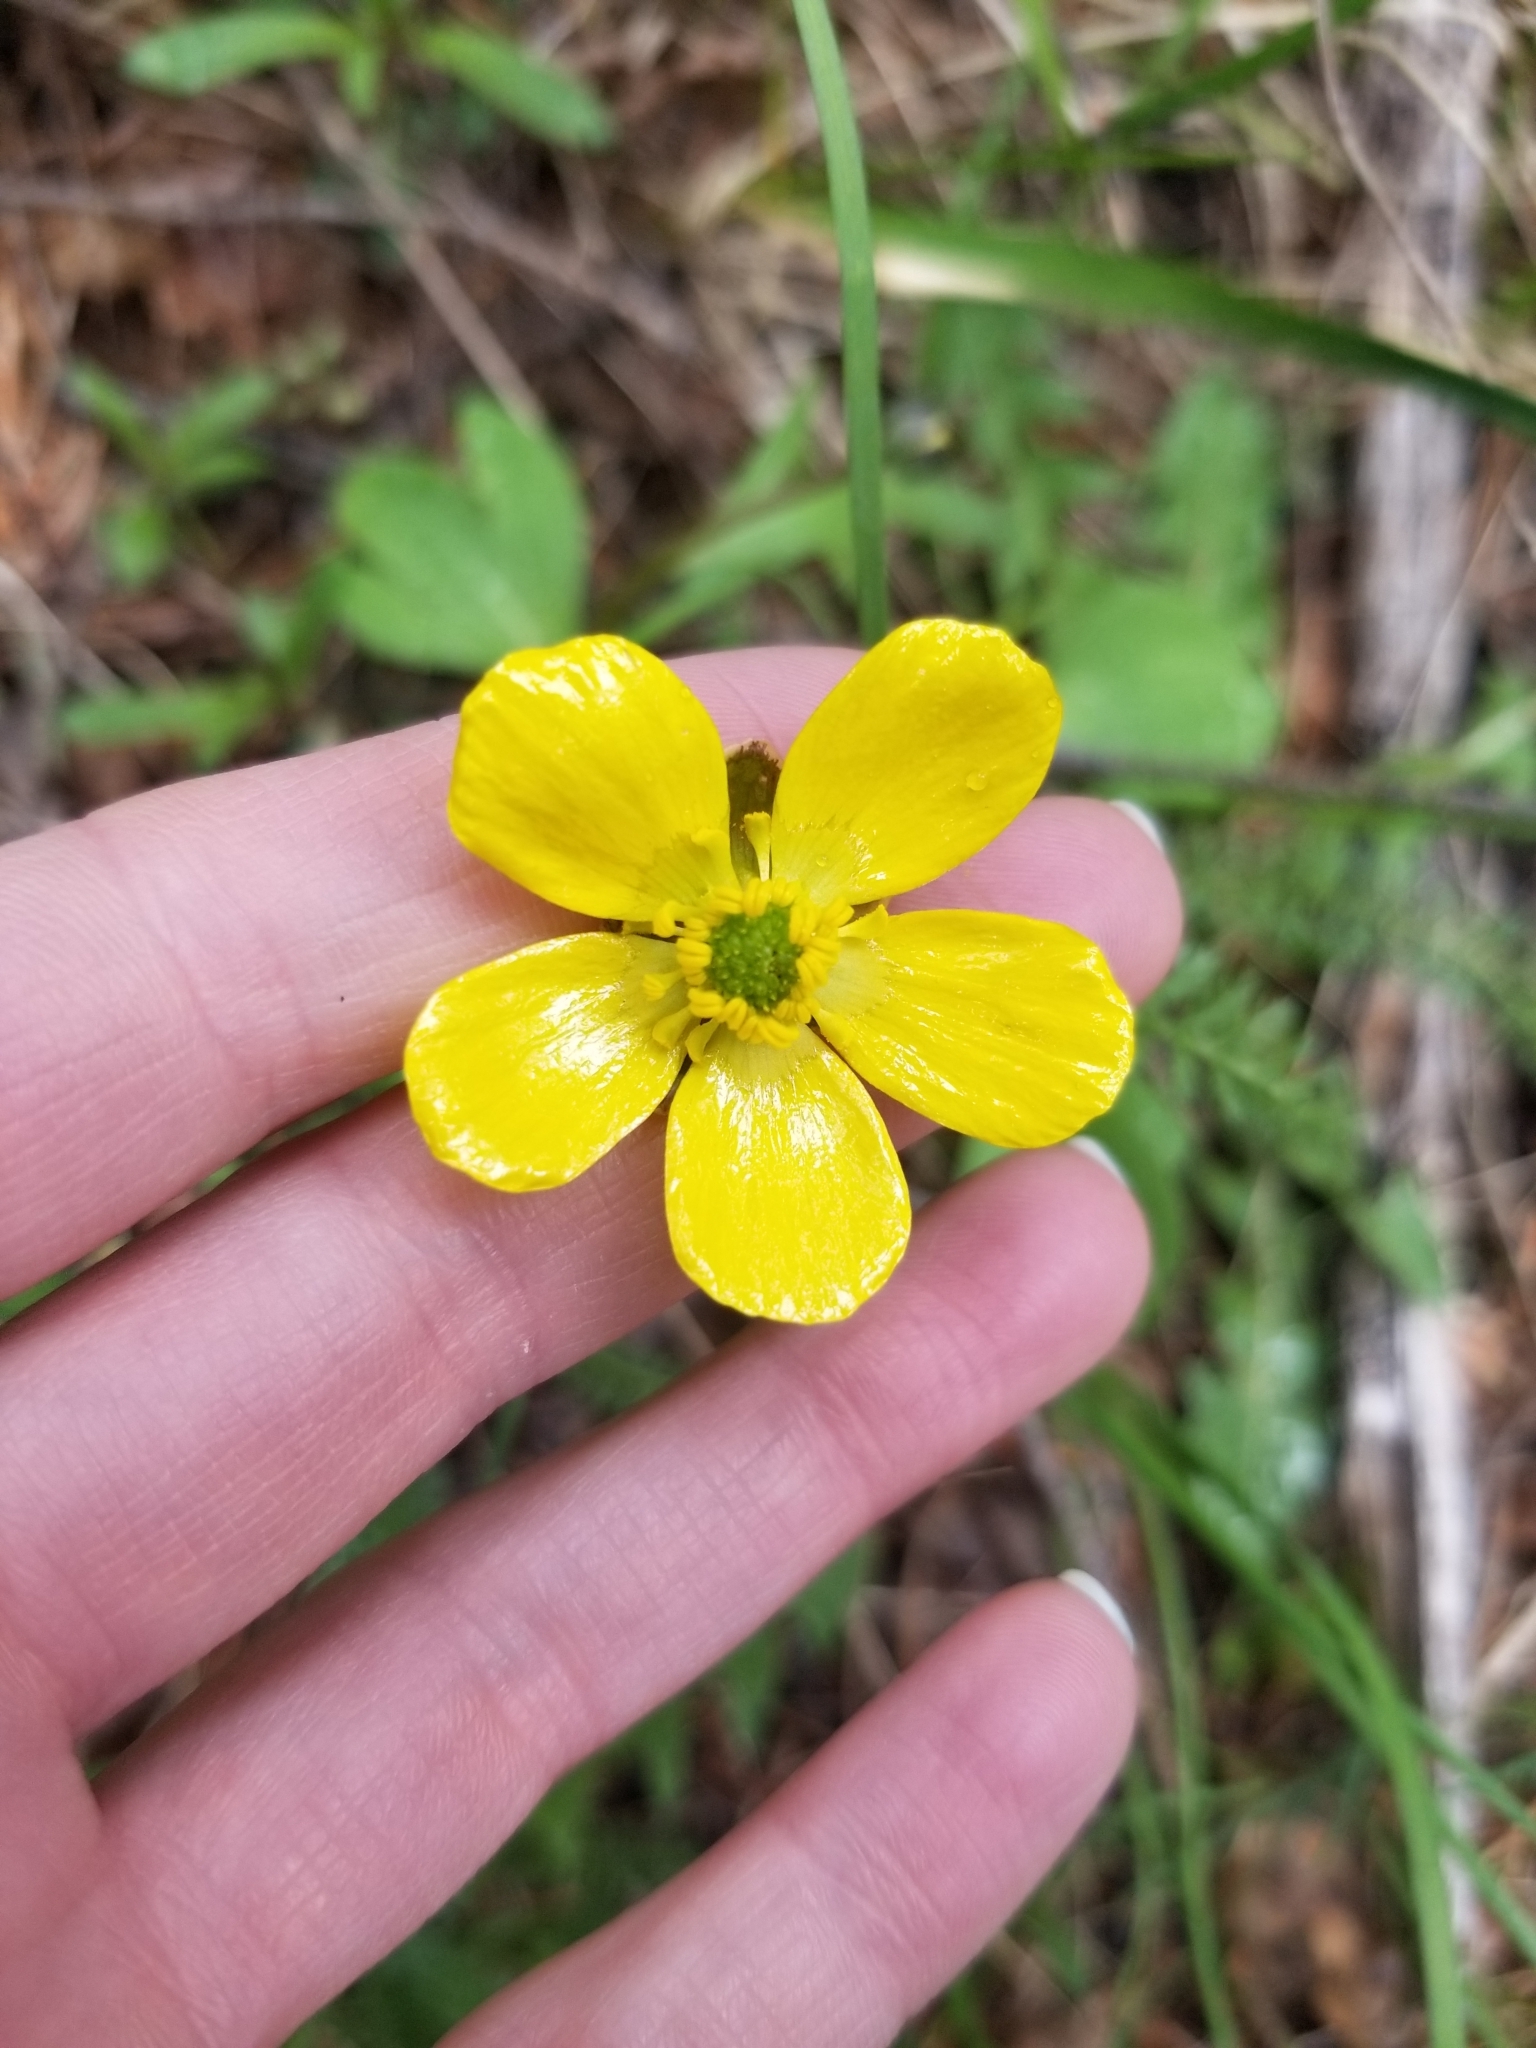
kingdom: Plantae
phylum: Tracheophyta
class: Magnoliopsida
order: Ranunculales
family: Ranunculaceae
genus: Ranunculus
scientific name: Ranunculus glaberrimus
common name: Sagebrush buttercup
